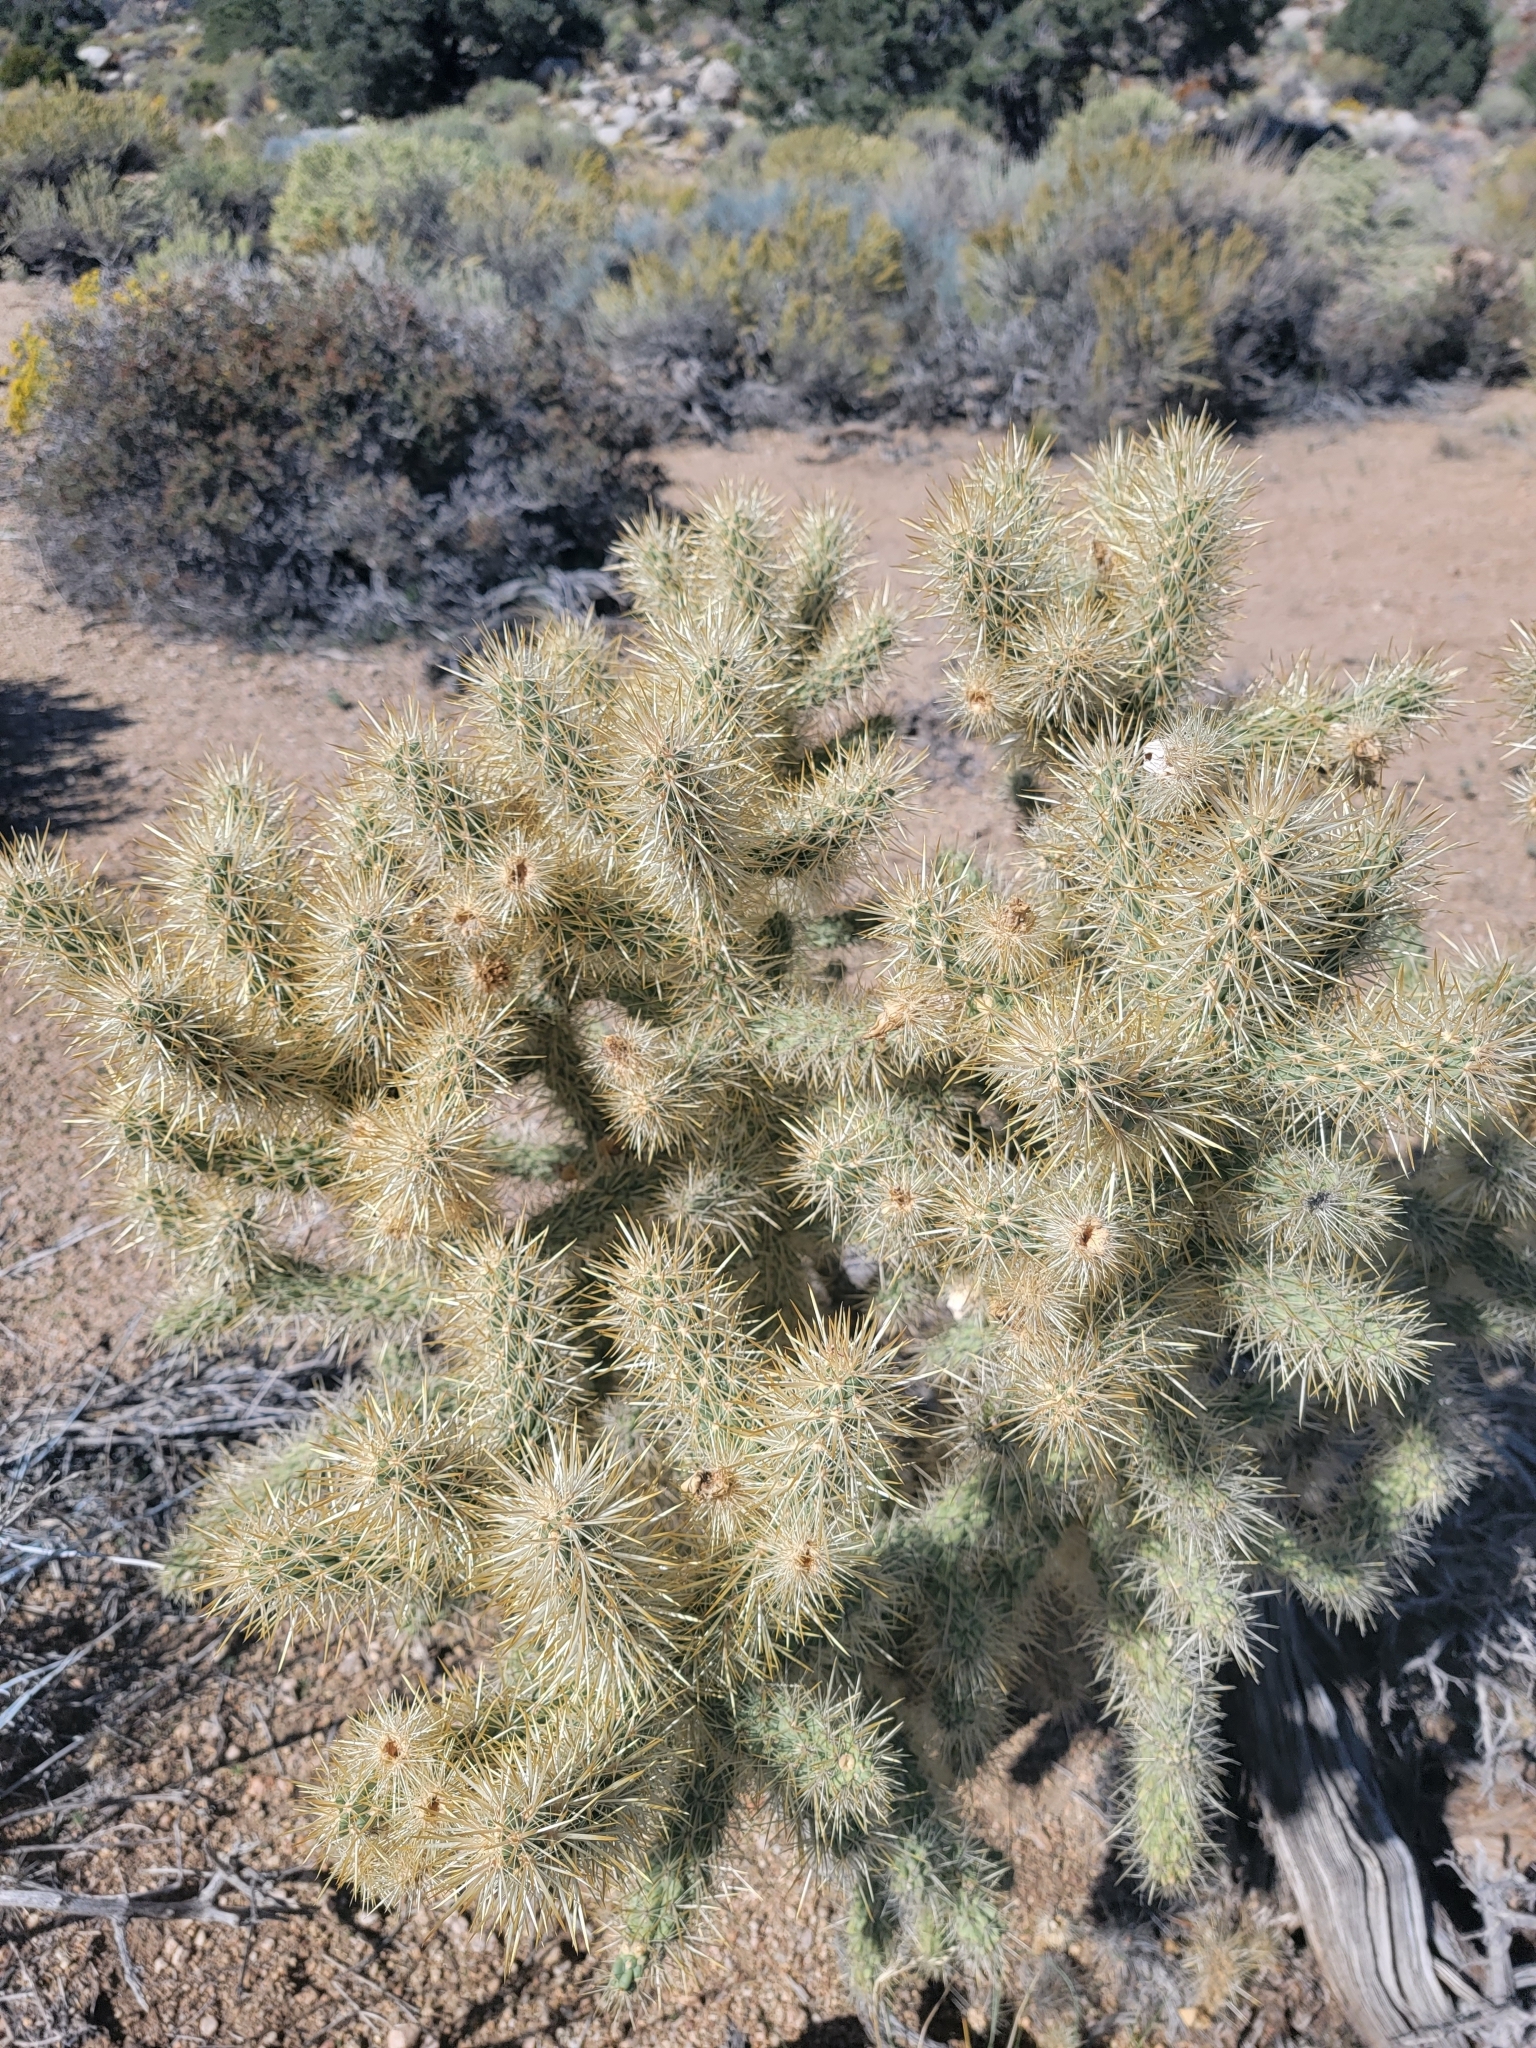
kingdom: Plantae
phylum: Tracheophyta
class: Magnoliopsida
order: Caryophyllales
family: Cactaceae
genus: Cylindropuntia
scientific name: Cylindropuntia echinocarpa
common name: Ground cholla
